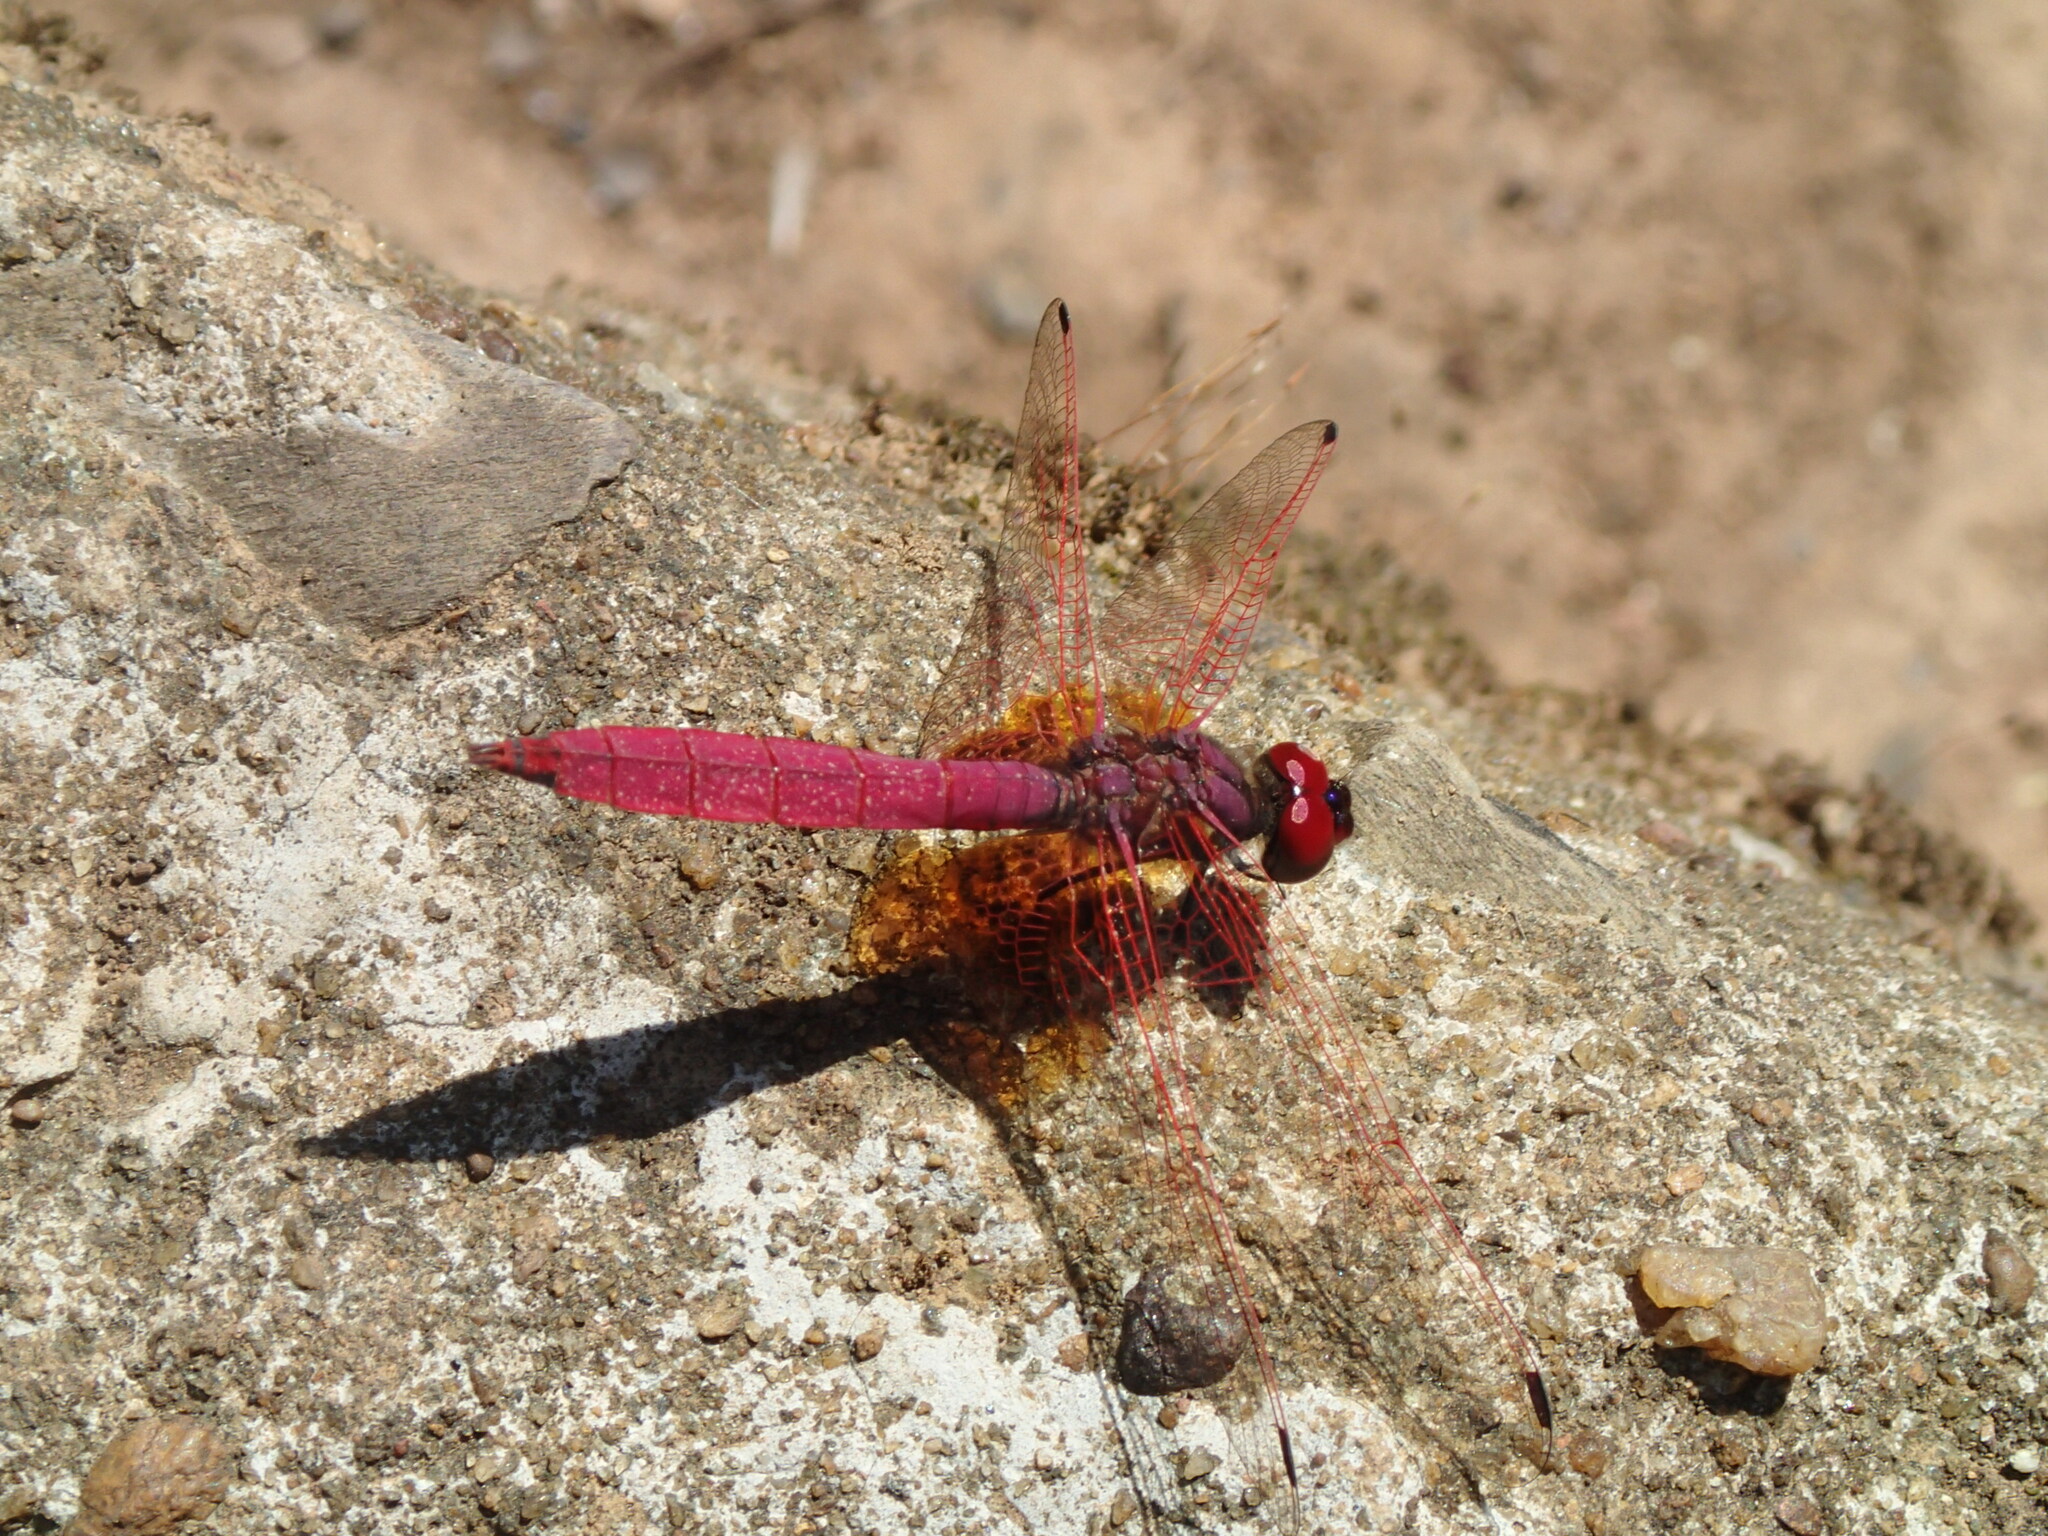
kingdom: Animalia
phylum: Arthropoda
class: Insecta
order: Odonata
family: Libellulidae
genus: Trithemis
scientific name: Trithemis aurora
